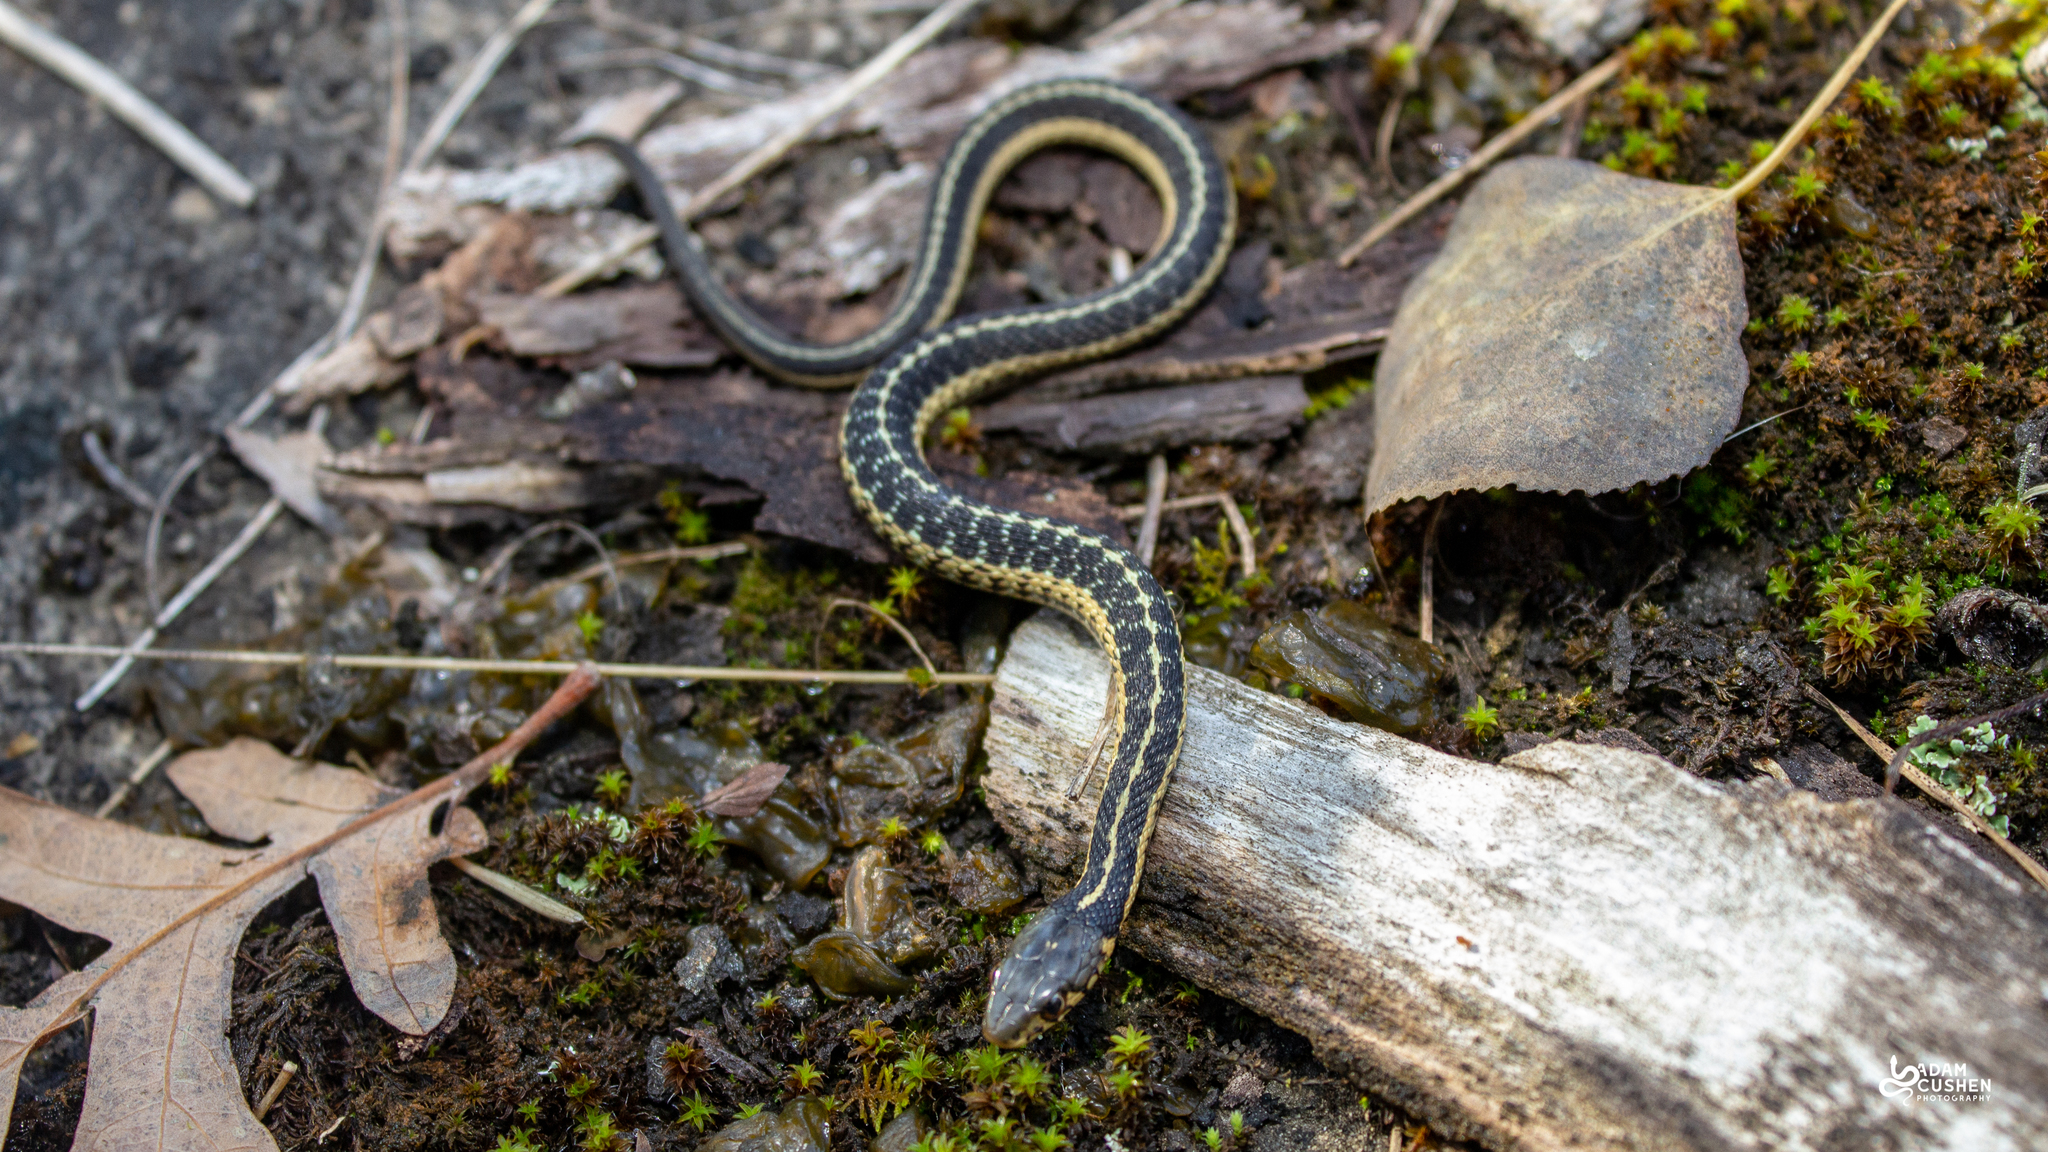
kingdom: Animalia
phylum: Chordata
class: Squamata
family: Colubridae
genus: Thamnophis
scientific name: Thamnophis sirtalis
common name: Common garter snake
